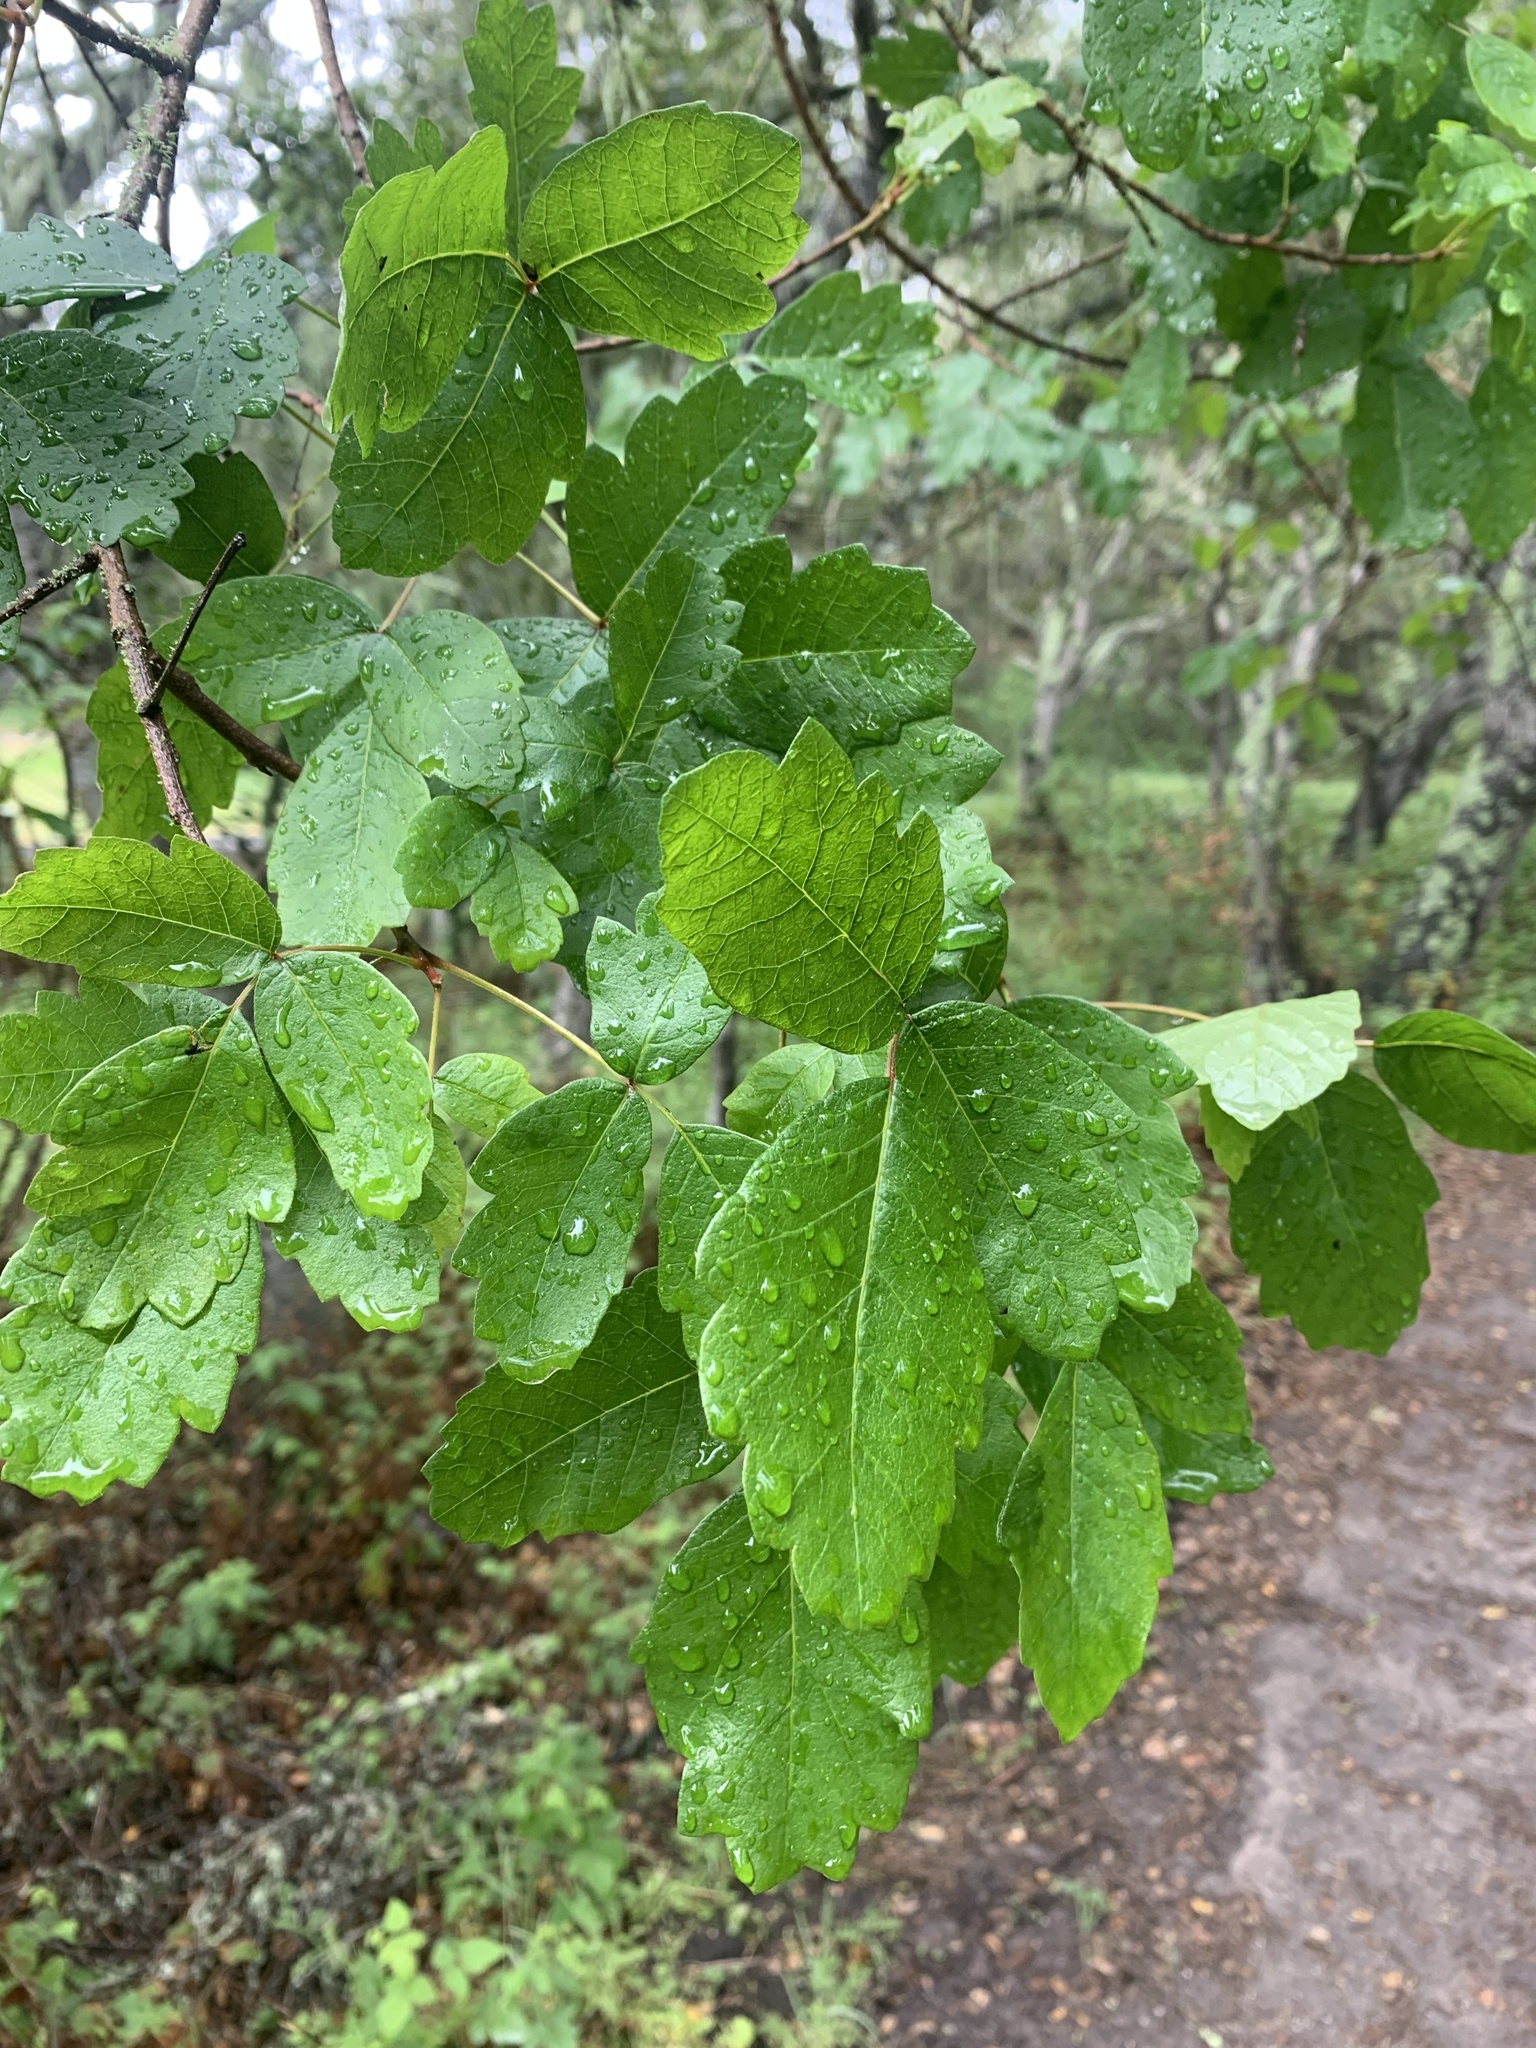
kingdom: Plantae
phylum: Tracheophyta
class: Magnoliopsida
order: Sapindales
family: Anacardiaceae
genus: Toxicodendron
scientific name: Toxicodendron diversilobum
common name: Pacific poison-oak
